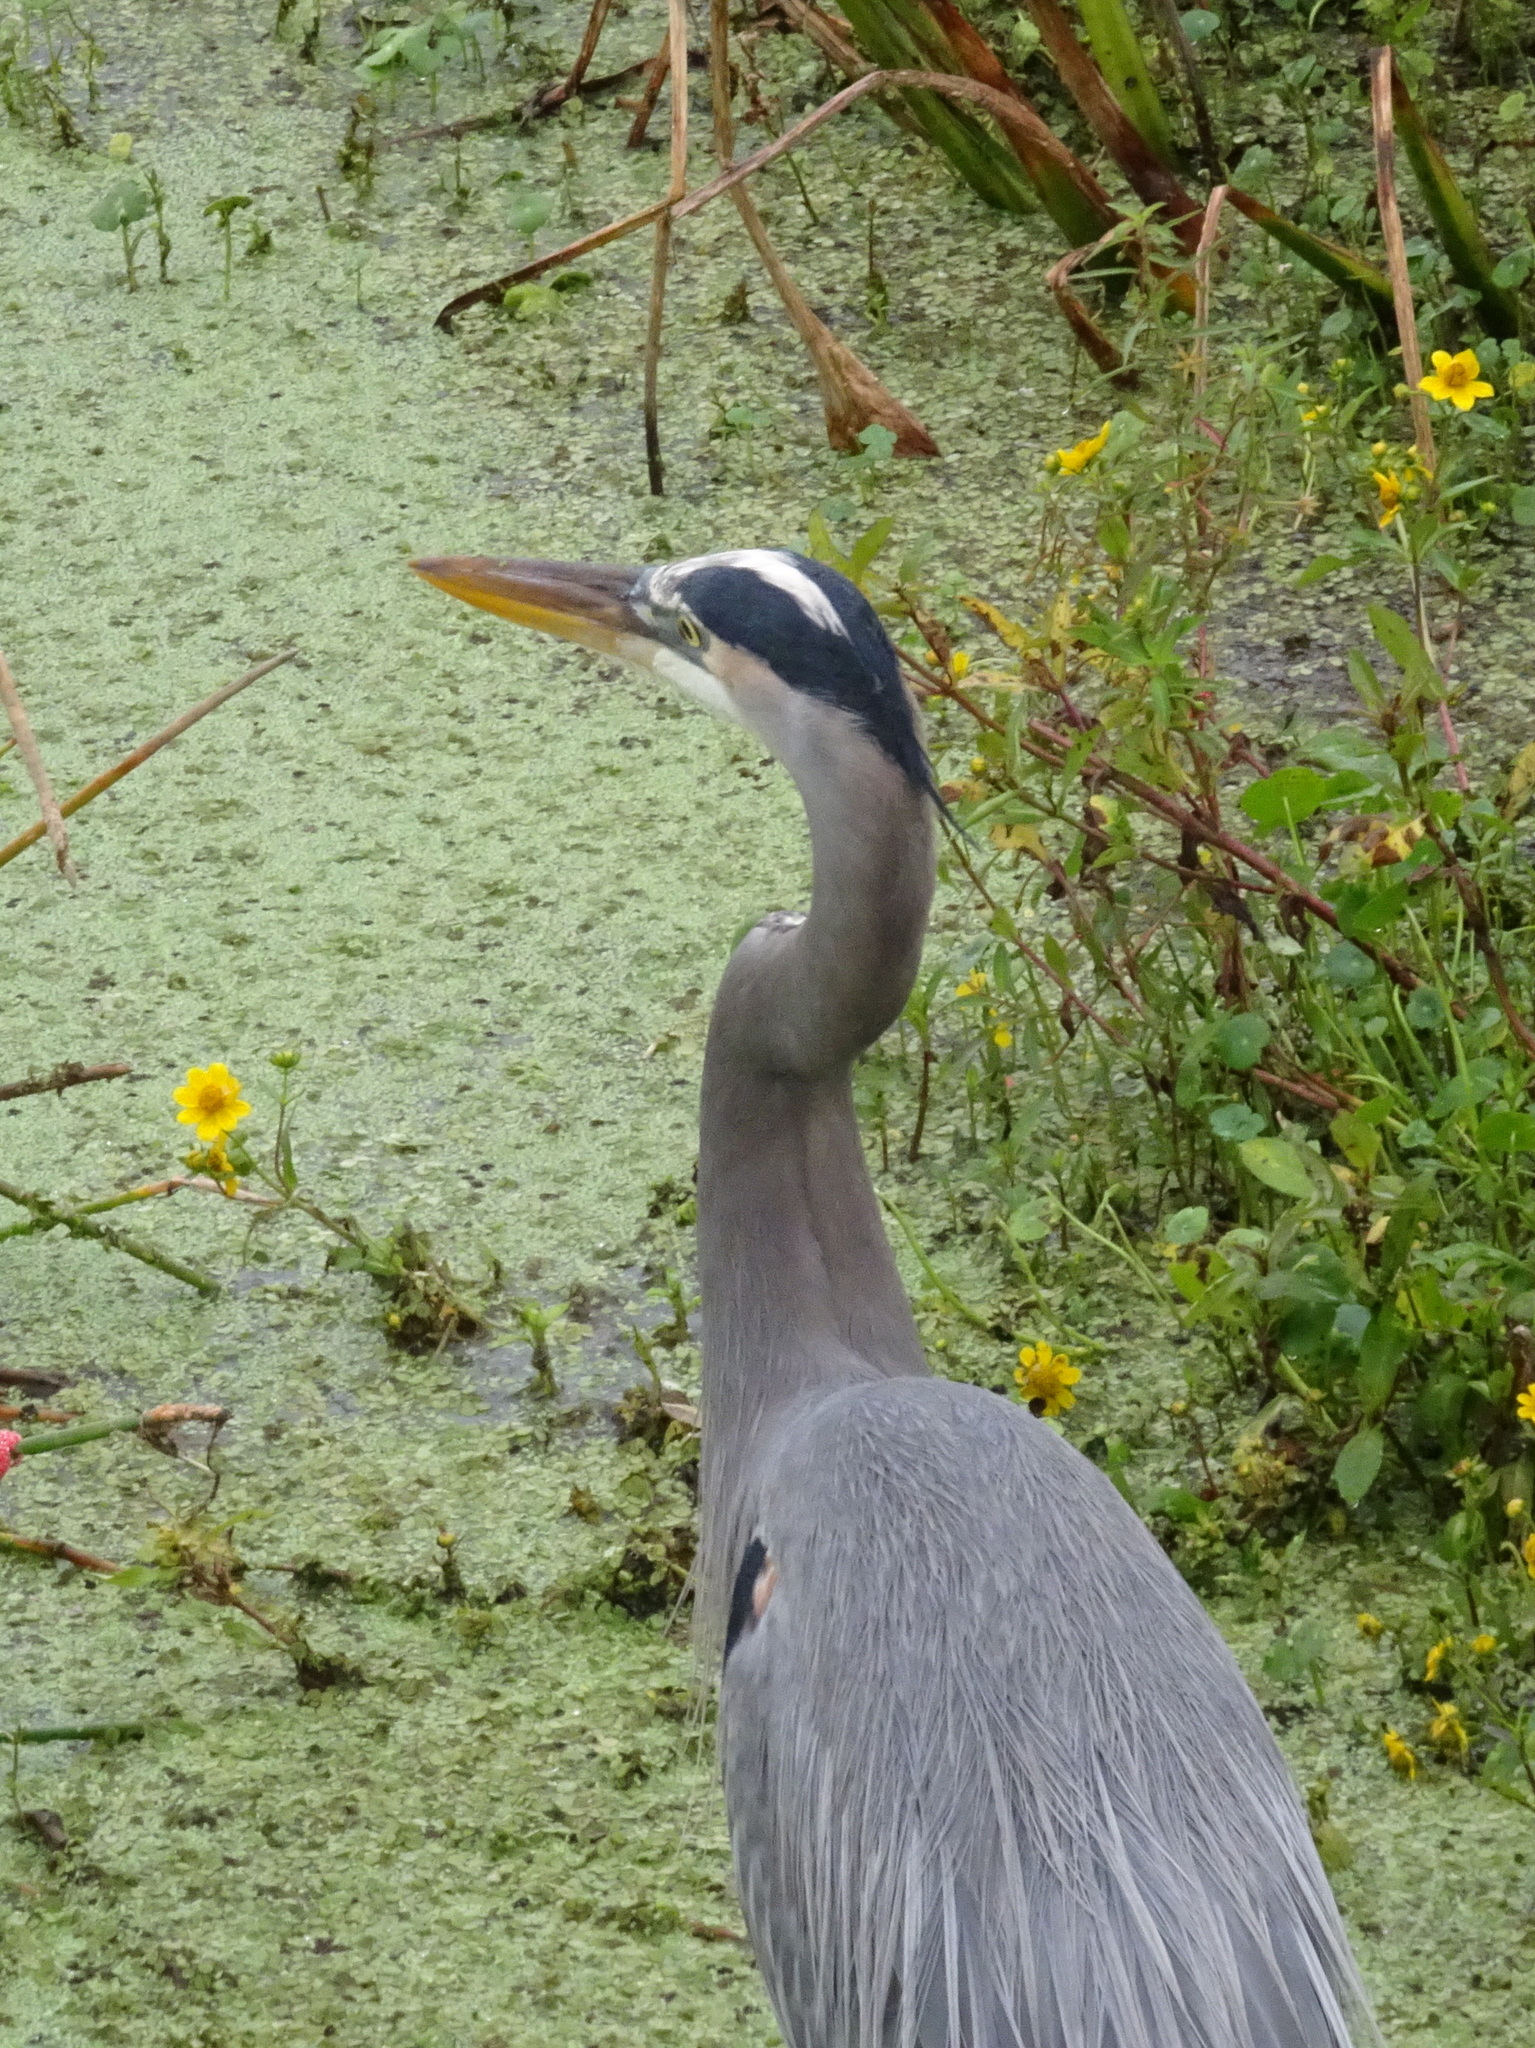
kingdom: Animalia
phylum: Chordata
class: Aves
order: Pelecaniformes
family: Ardeidae
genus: Ardea
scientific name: Ardea herodias
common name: Great blue heron
